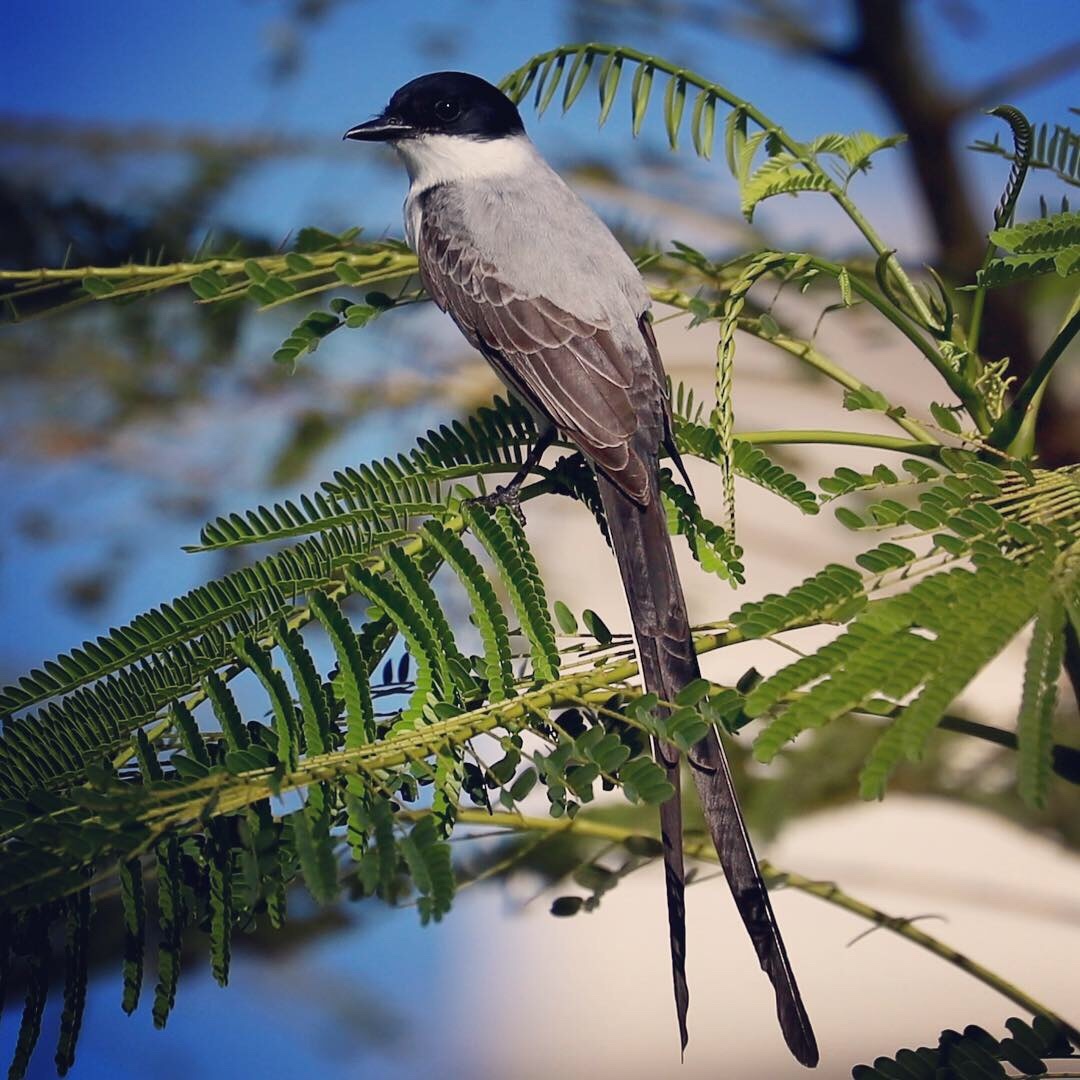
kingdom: Animalia
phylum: Chordata
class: Aves
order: Passeriformes
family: Tyrannidae
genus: Tyrannus
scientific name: Tyrannus savana
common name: Fork-tailed flycatcher
